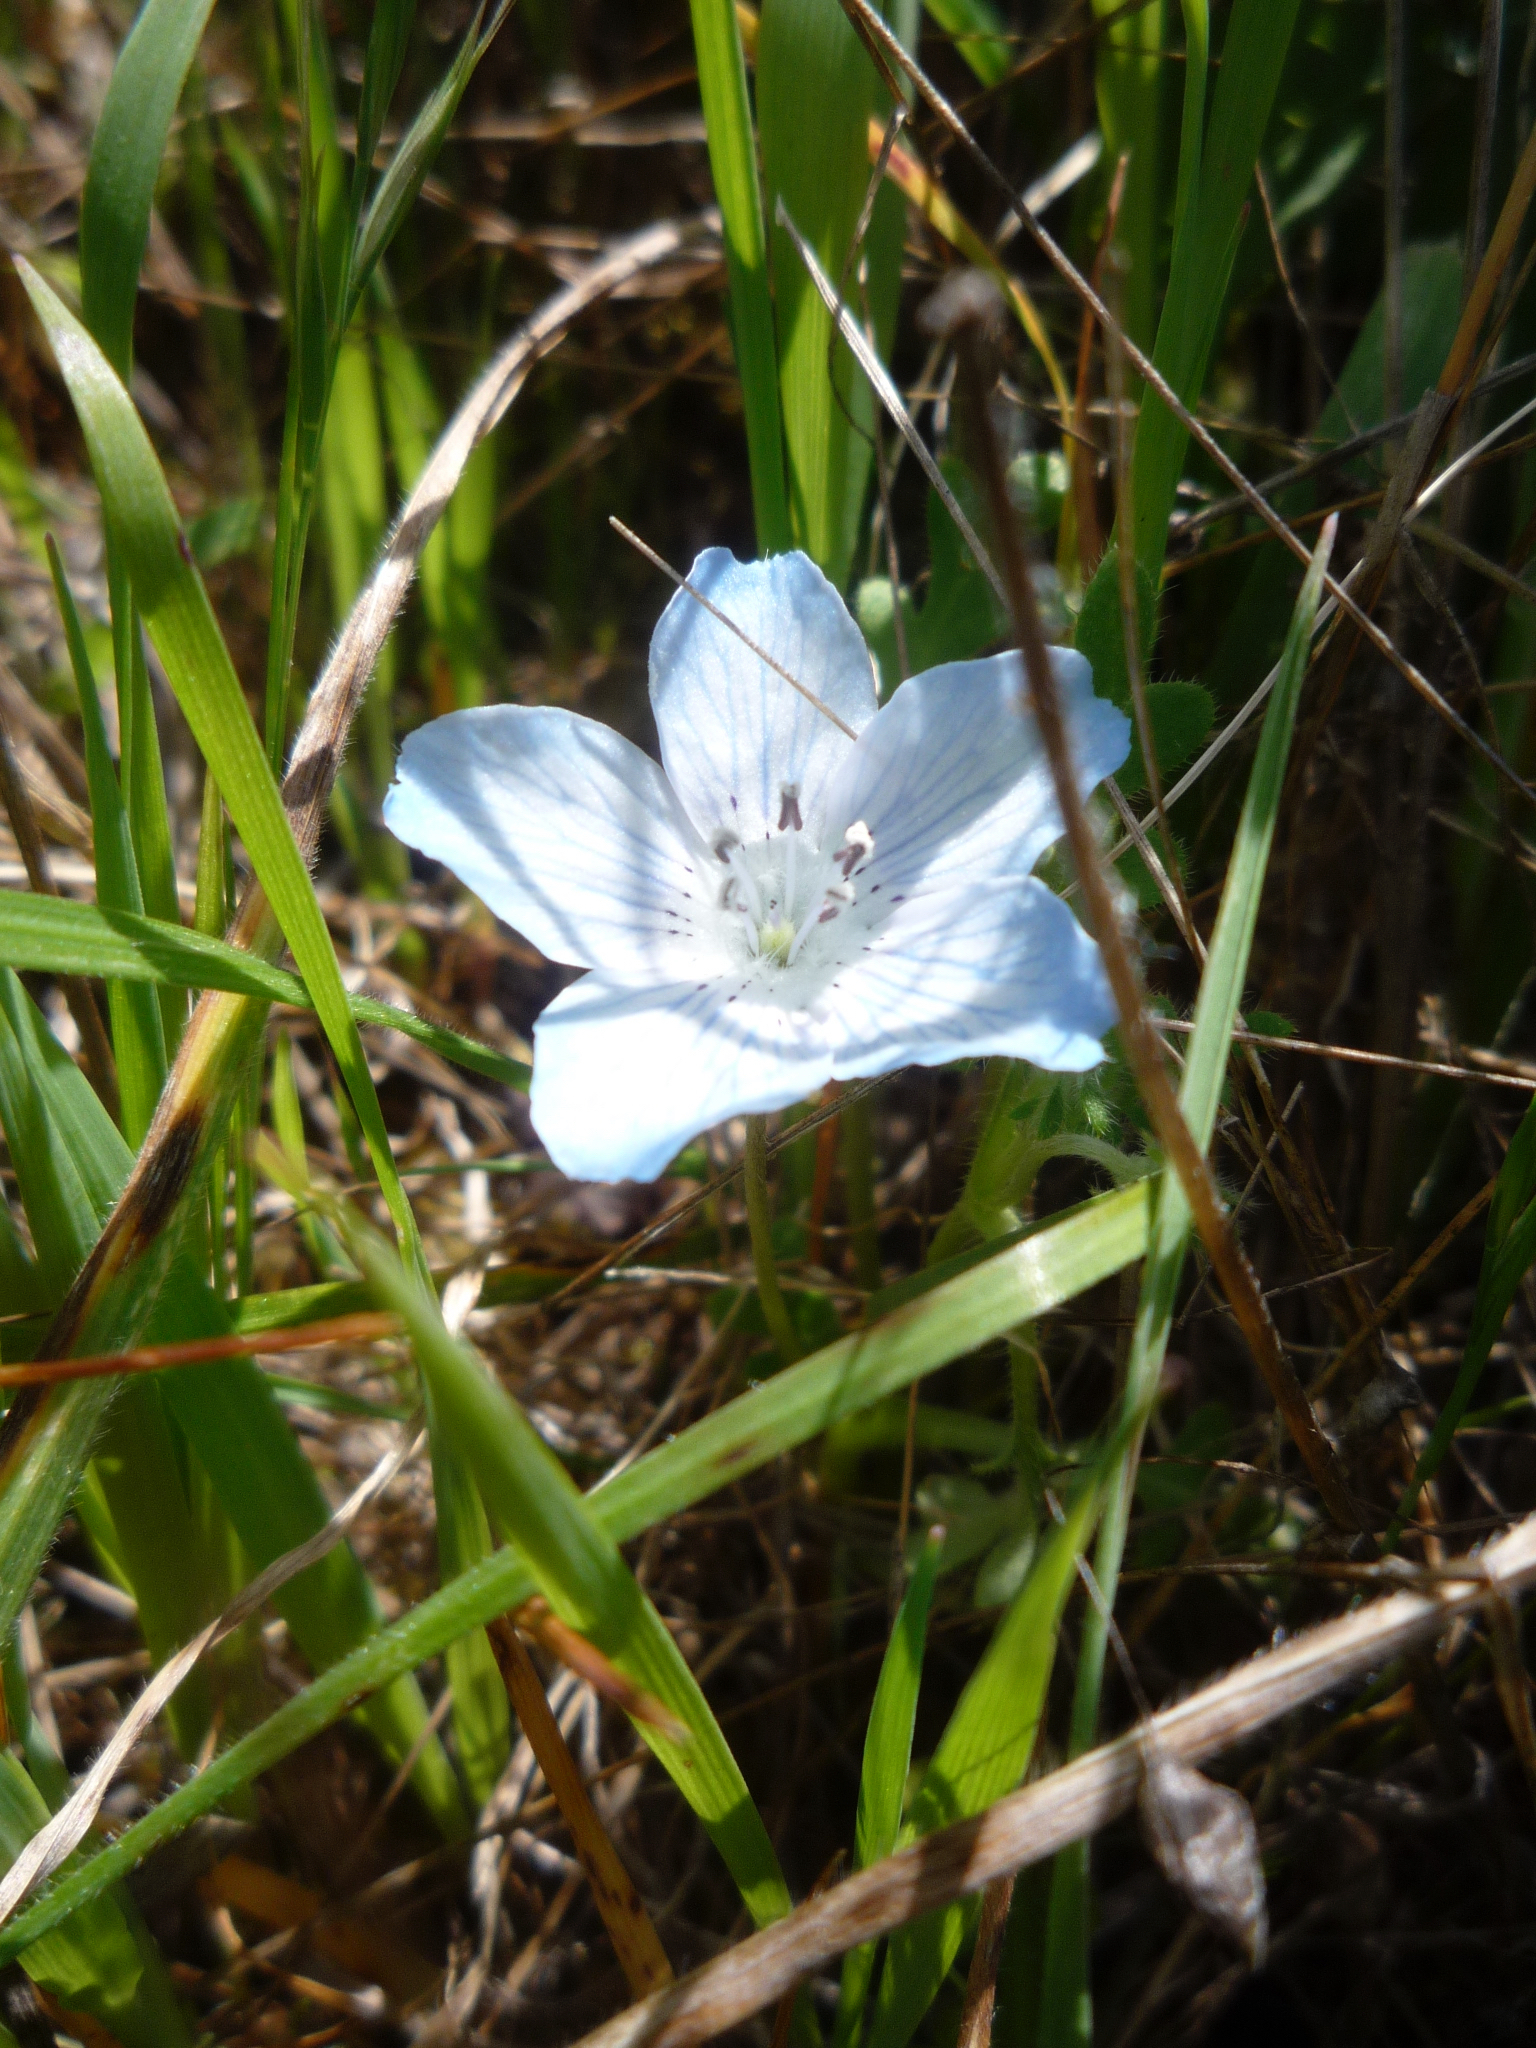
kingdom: Plantae
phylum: Tracheophyta
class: Magnoliopsida
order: Boraginales
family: Hydrophyllaceae
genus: Nemophila
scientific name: Nemophila menziesii
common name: Baby's-blue-eyes
